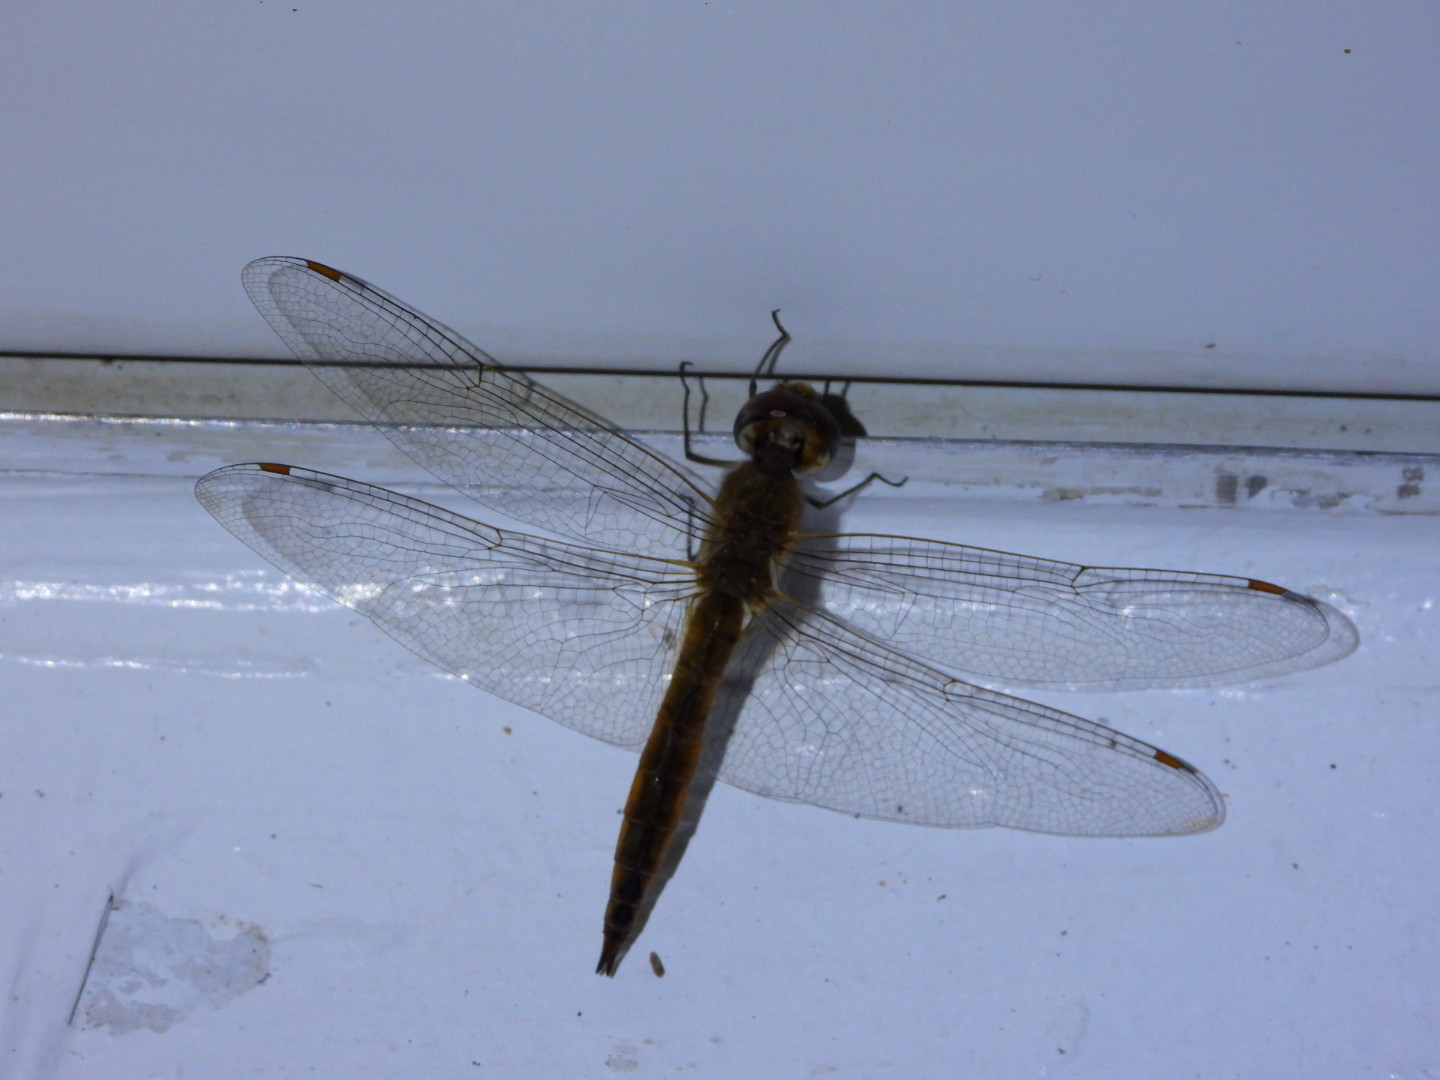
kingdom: Animalia
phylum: Arthropoda
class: Insecta
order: Odonata
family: Libellulidae
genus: Pantala
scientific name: Pantala flavescens
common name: Wandering glider
